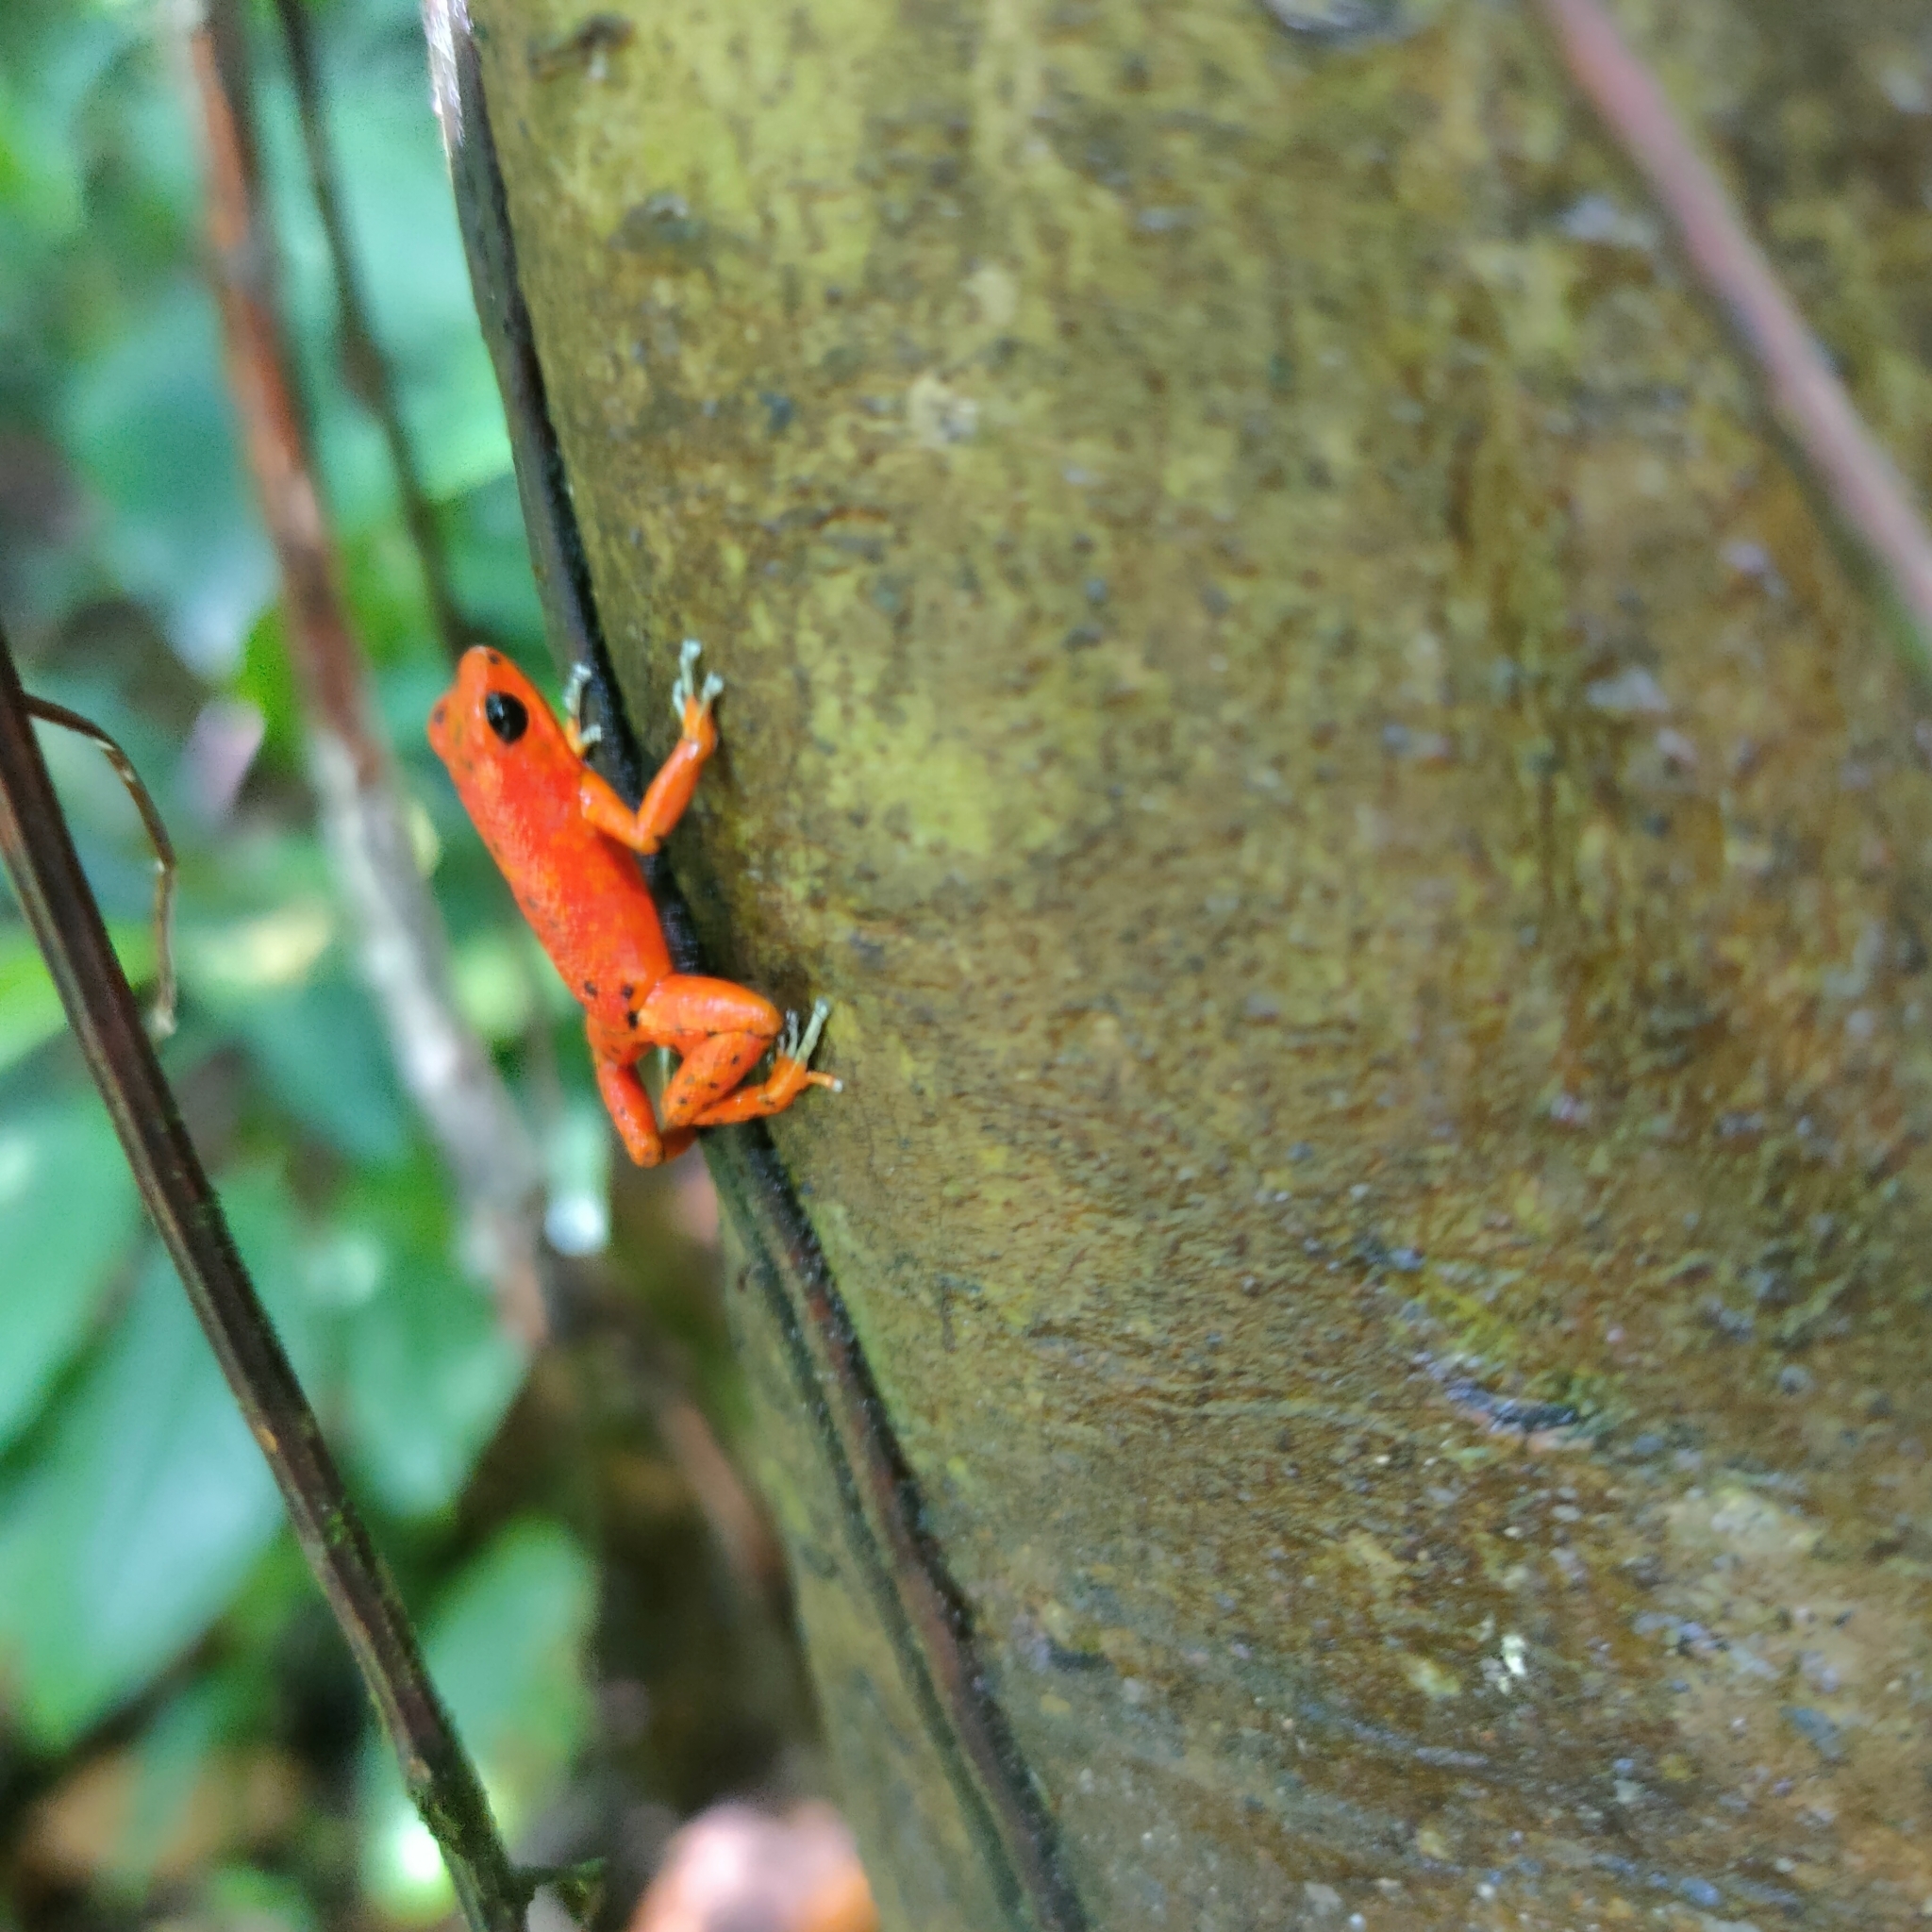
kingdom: Animalia
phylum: Chordata
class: Amphibia
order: Anura
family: Dendrobatidae
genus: Oophaga
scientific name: Oophaga pumilio
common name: Flaming poison frog
